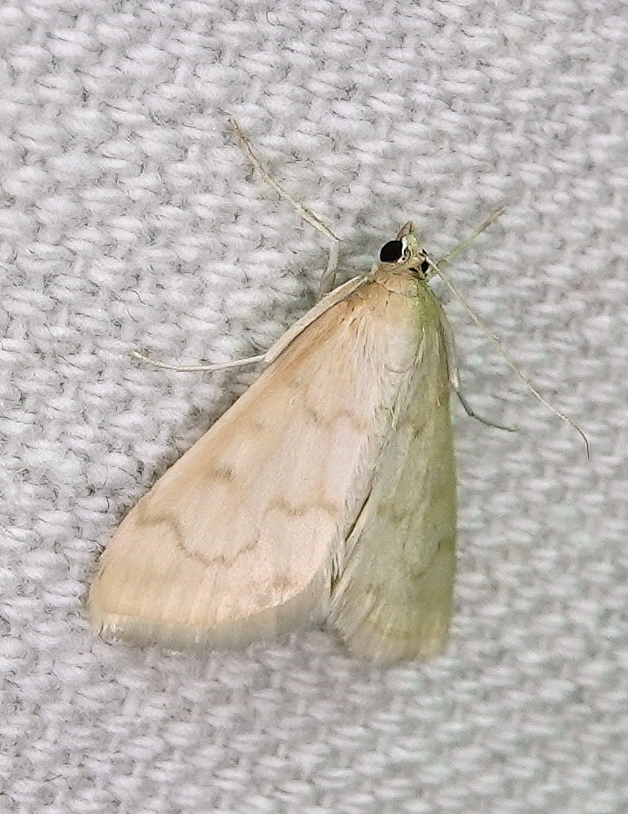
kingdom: Animalia
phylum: Arthropoda
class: Insecta
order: Lepidoptera
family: Crambidae
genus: Hahncappsia
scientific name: Hahncappsia pergilvalis
